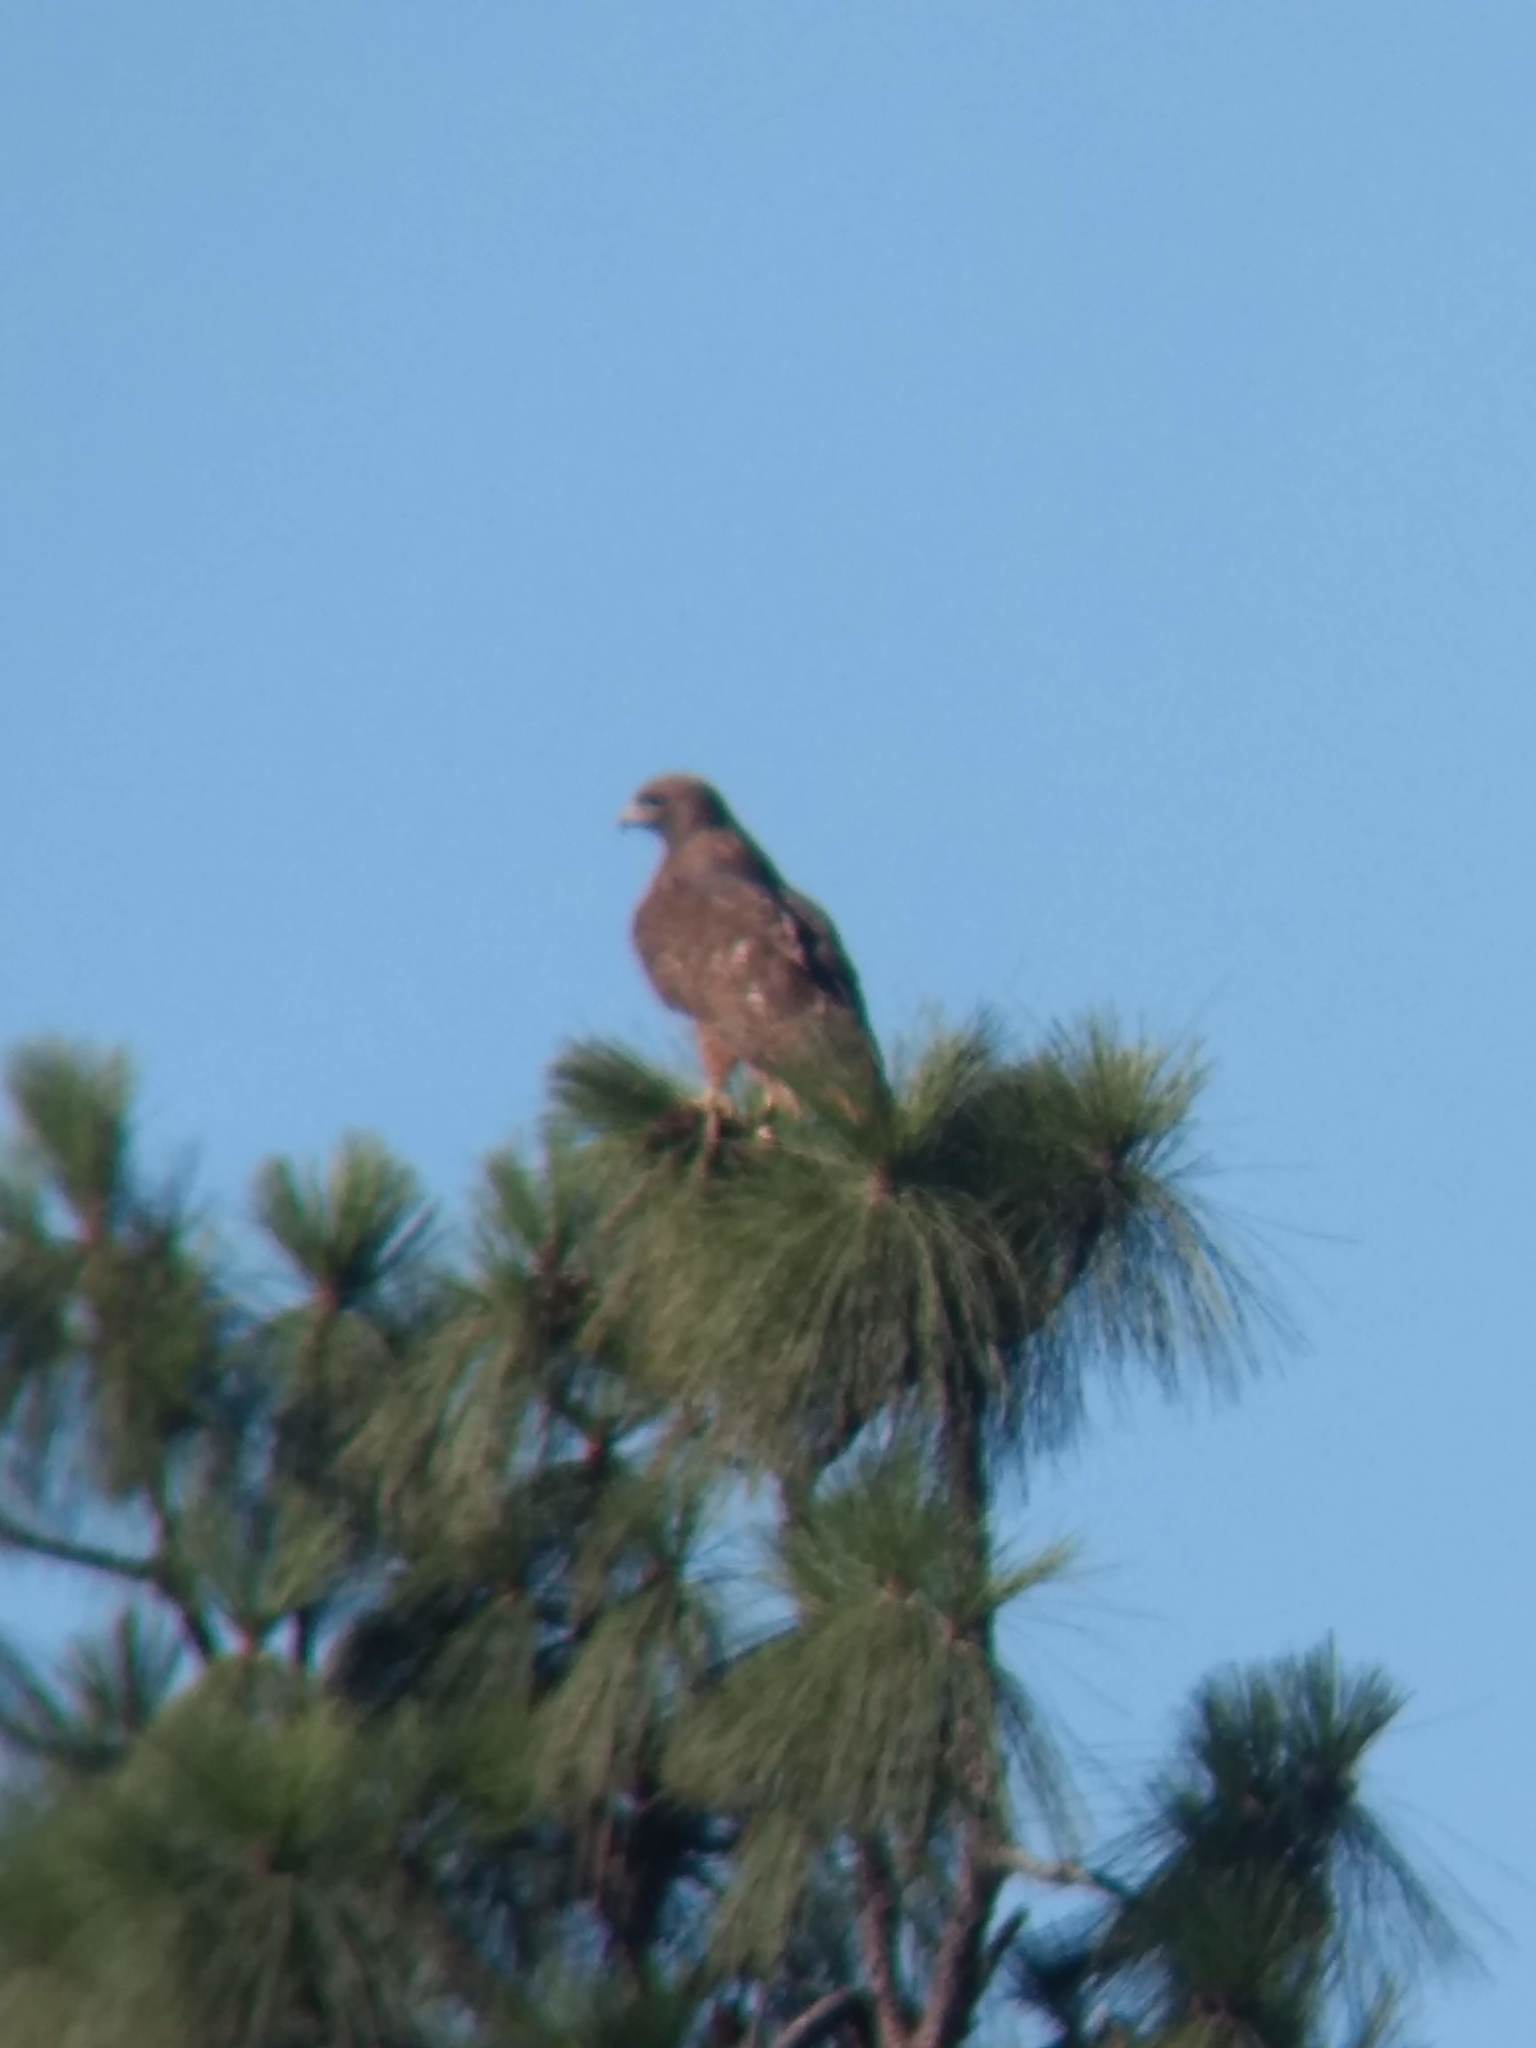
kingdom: Animalia
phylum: Chordata
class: Aves
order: Accipitriformes
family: Accipitridae
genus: Buteo
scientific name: Buteo jamaicensis
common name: Red-tailed hawk
